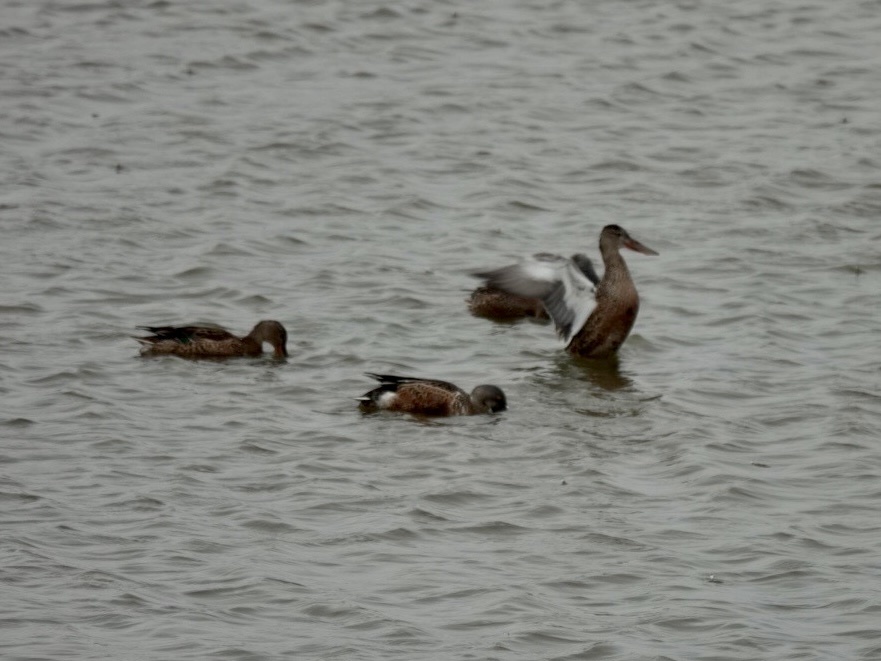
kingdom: Animalia
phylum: Chordata
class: Aves
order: Anseriformes
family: Anatidae
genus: Spatula
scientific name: Spatula clypeata
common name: Northern shoveler
